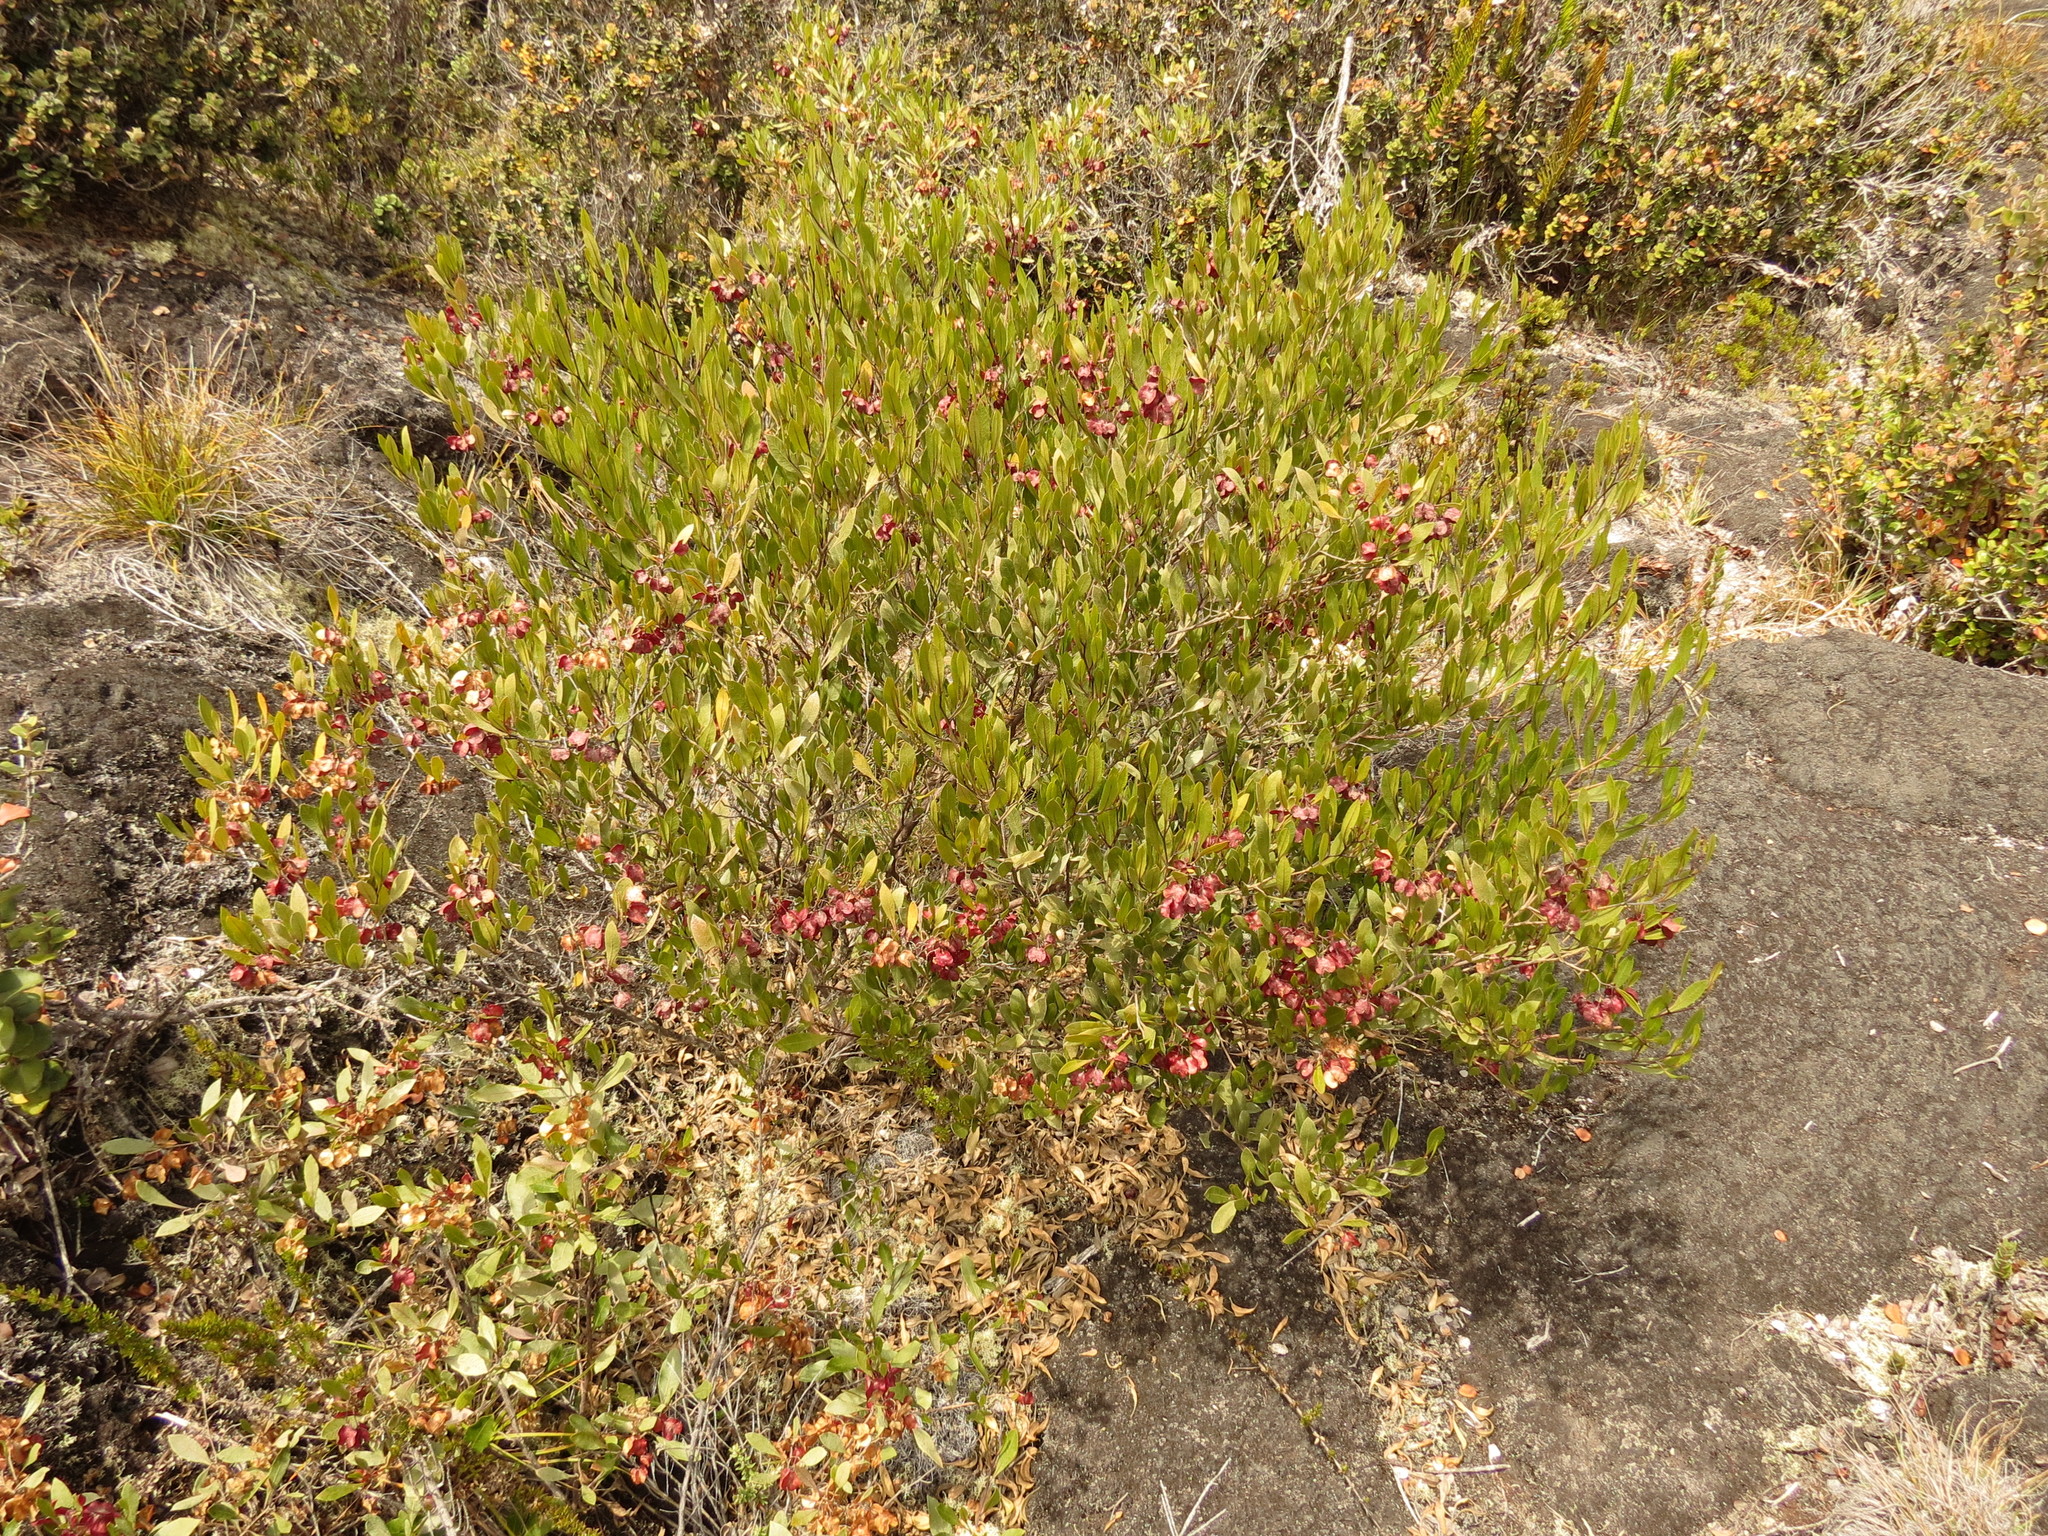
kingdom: Plantae
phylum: Tracheophyta
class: Magnoliopsida
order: Sapindales
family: Sapindaceae
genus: Dodonaea
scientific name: Dodonaea viscosa
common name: Hopbush
